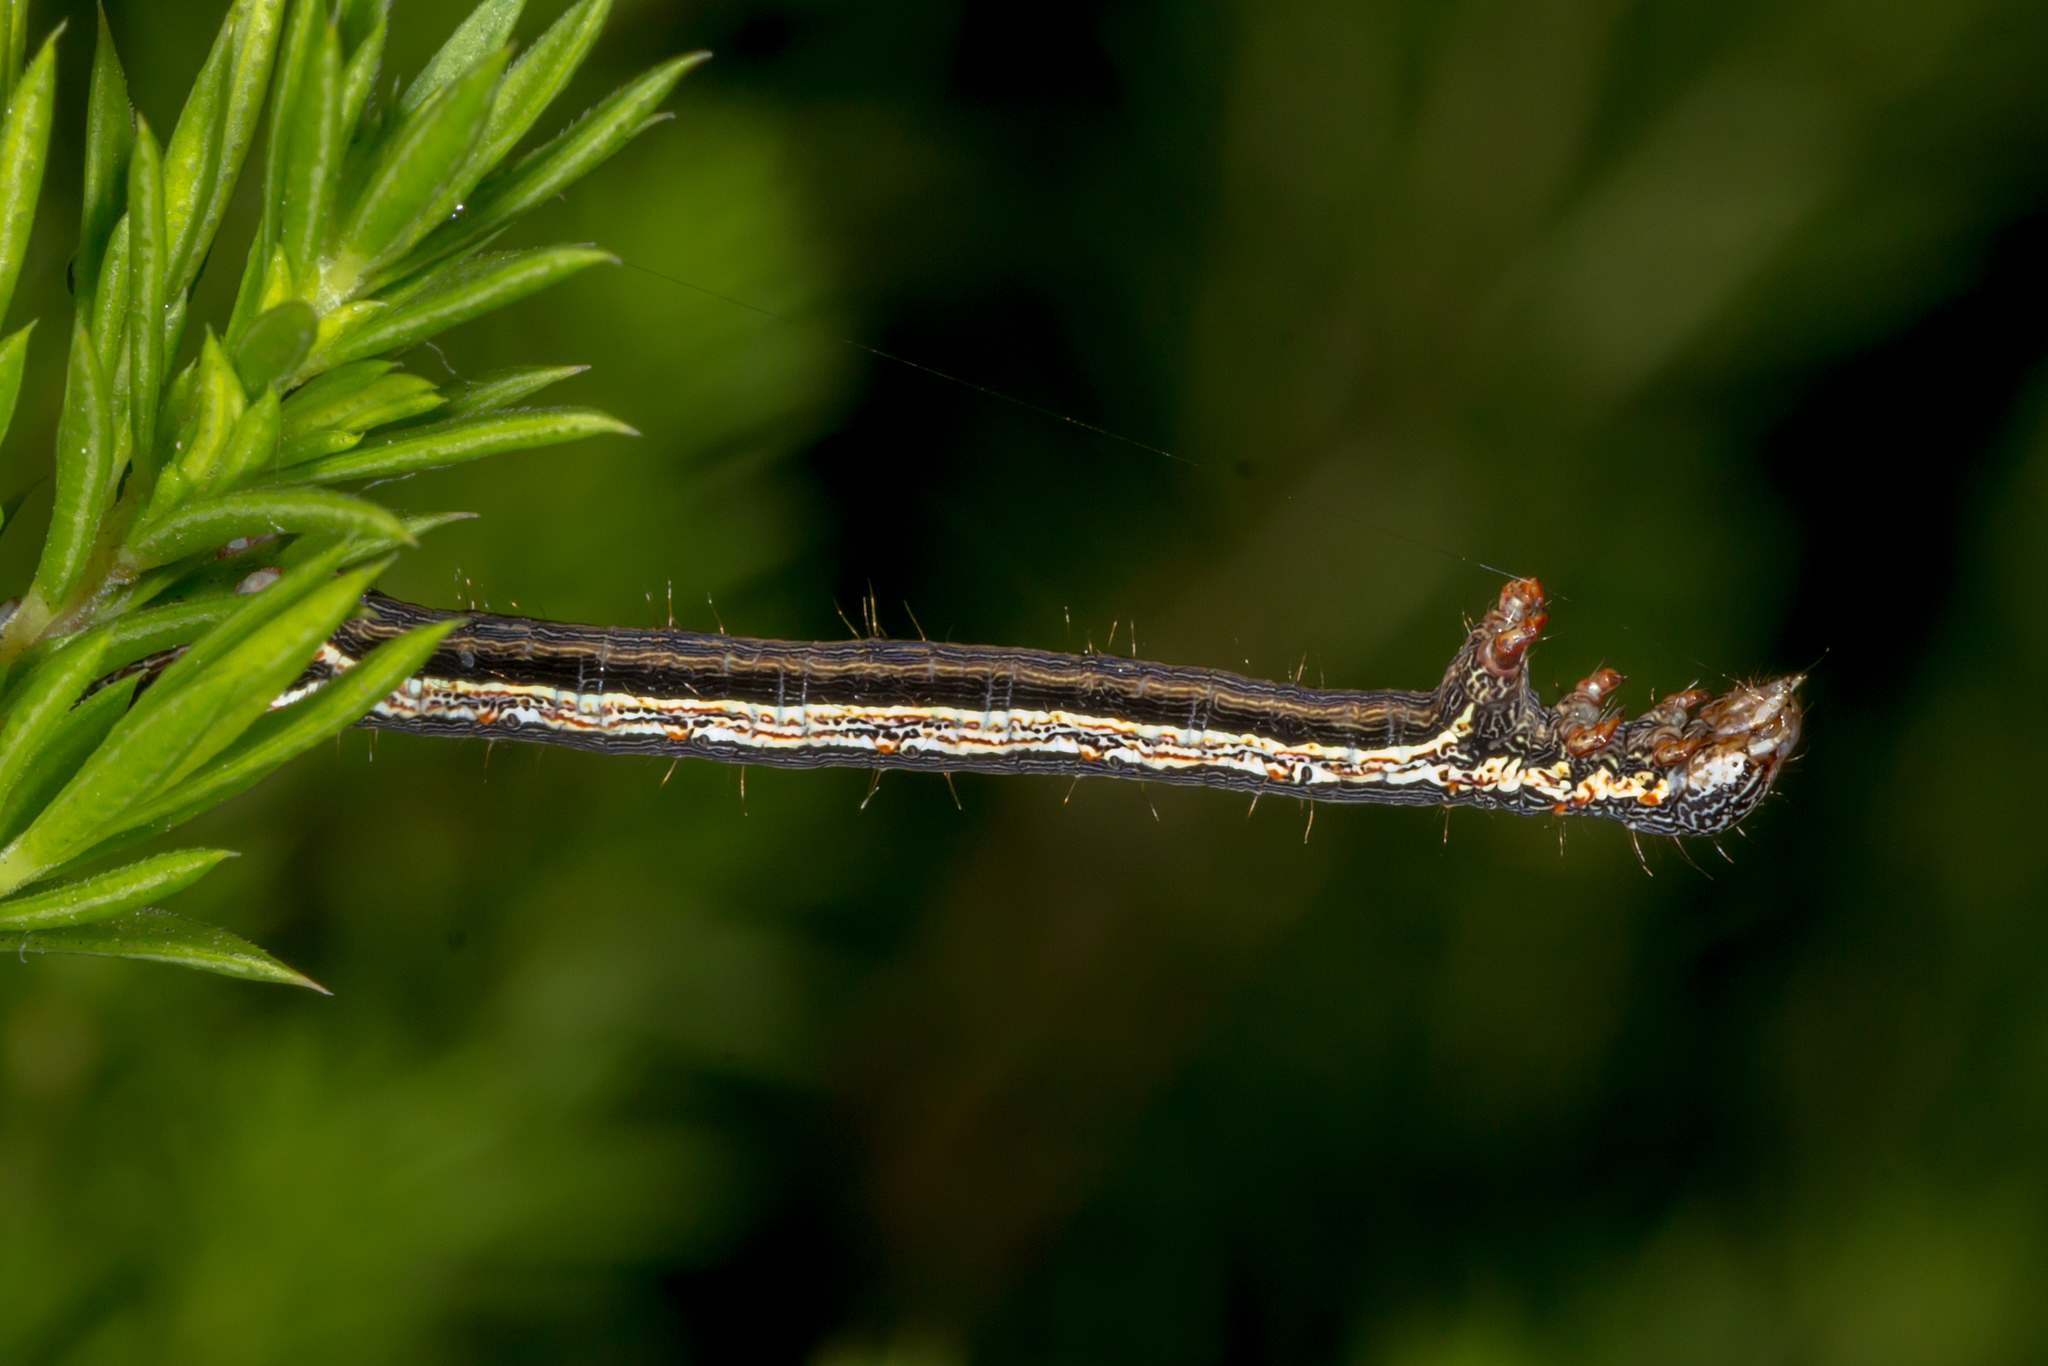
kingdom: Animalia
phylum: Arthropoda
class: Insecta
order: Lepidoptera
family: Geometridae
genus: Chlenias
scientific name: Chlenias banksiaria
